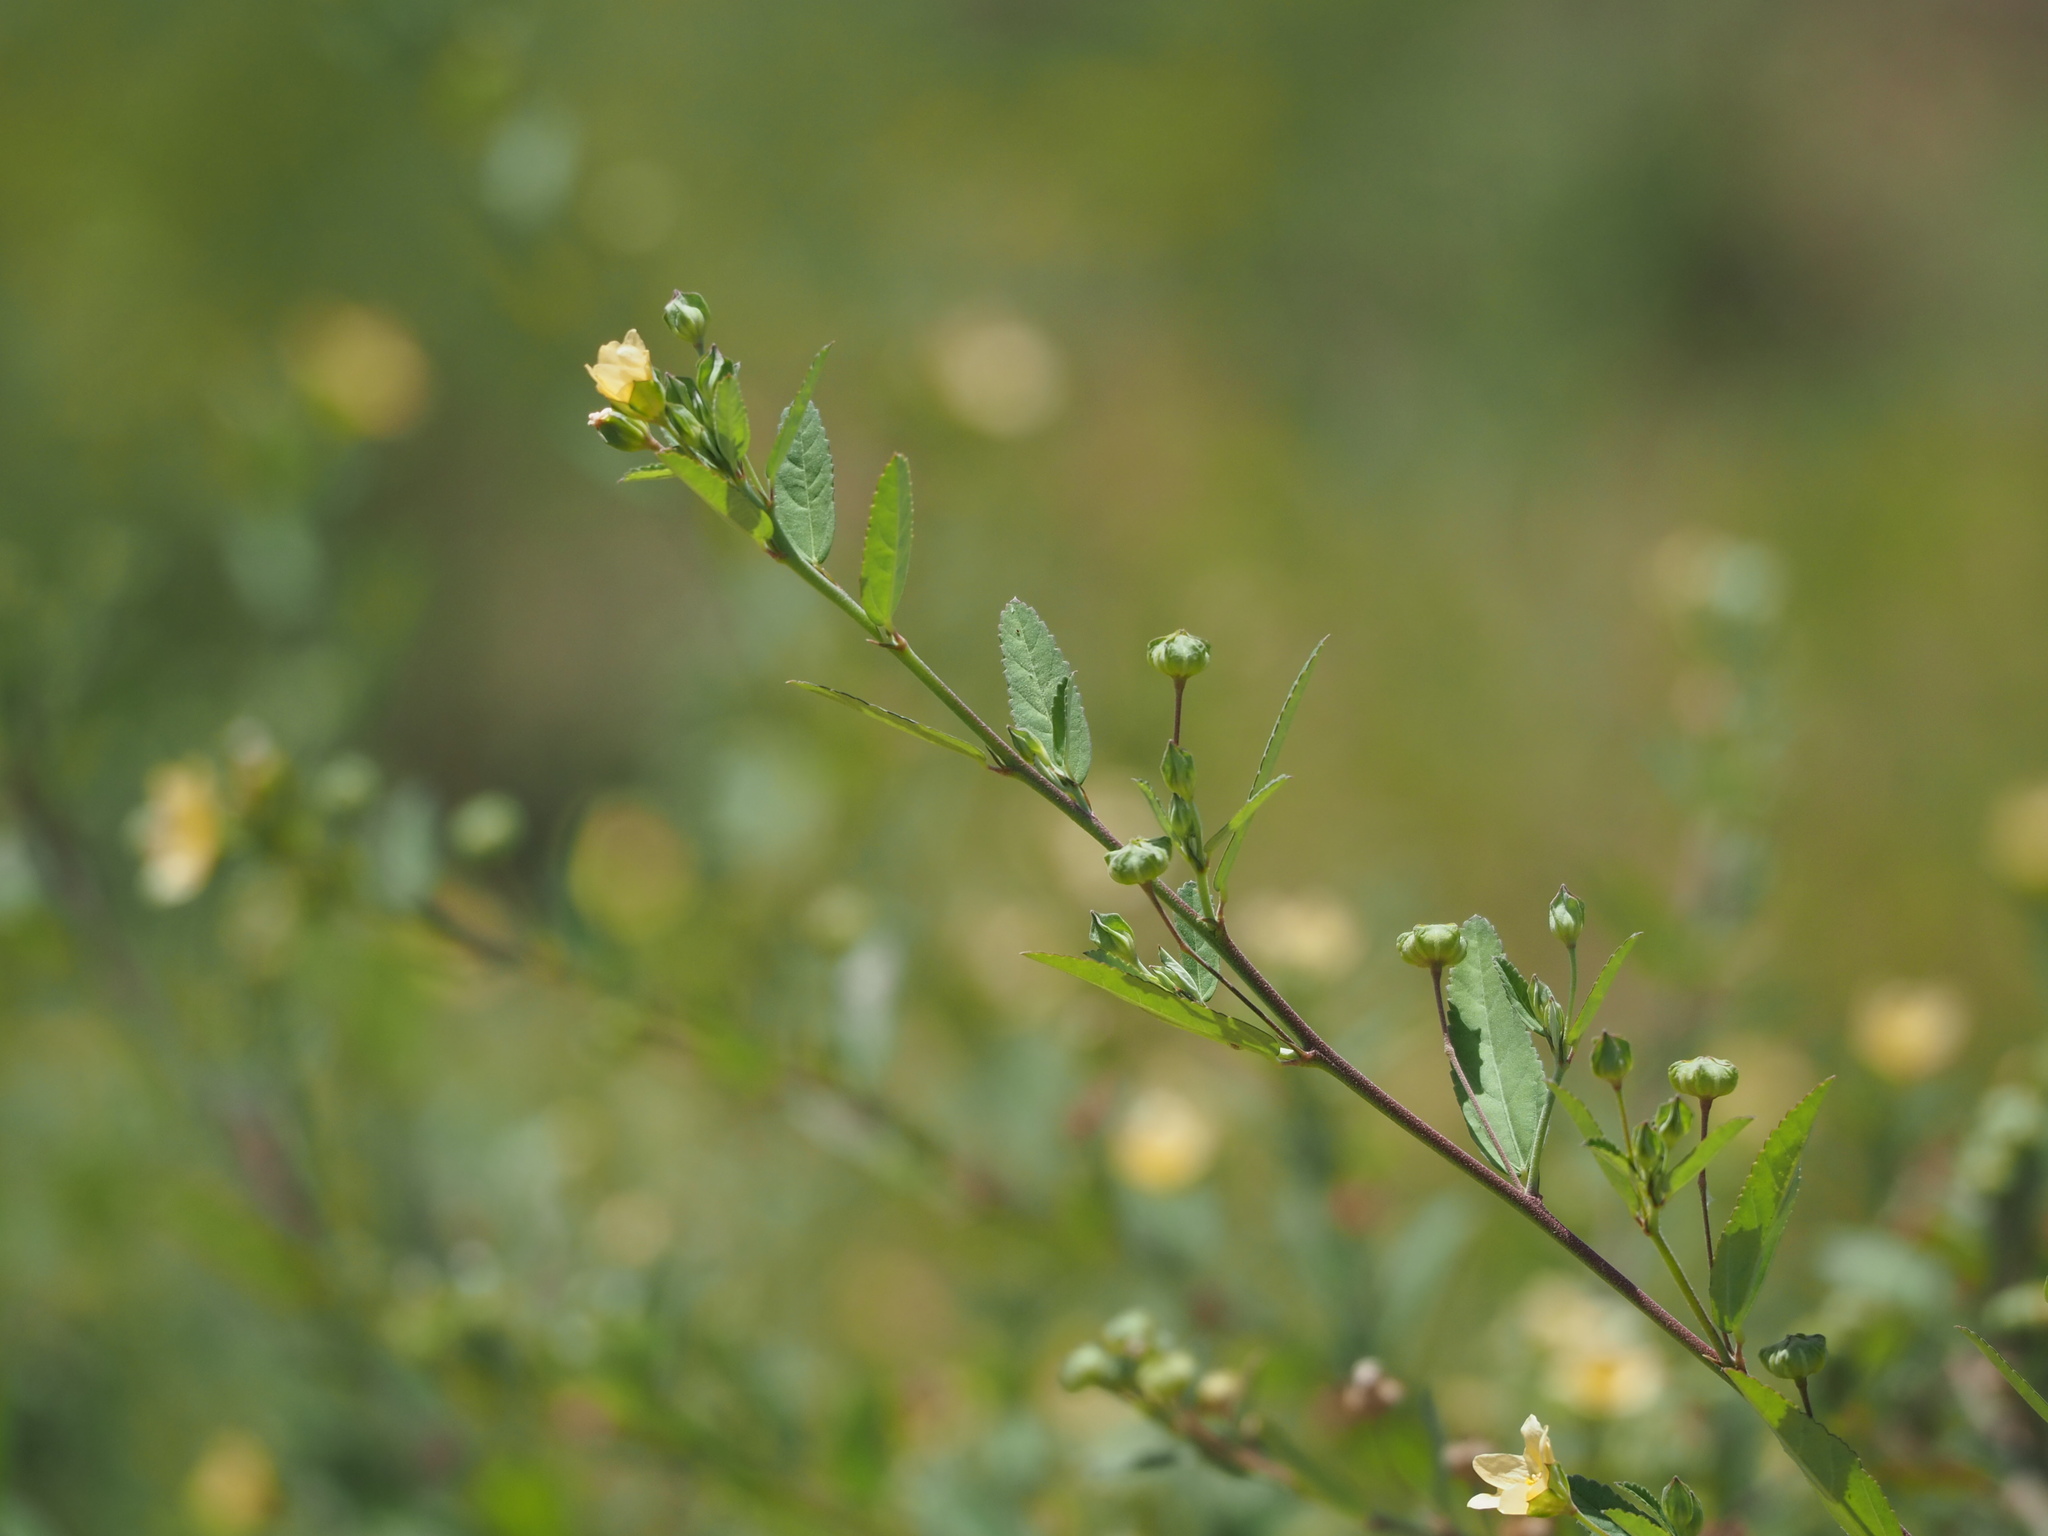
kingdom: Plantae
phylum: Tracheophyta
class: Magnoliopsida
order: Malvales
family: Malvaceae
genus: Sida
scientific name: Sida rhombifolia
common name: Queensland-hemp
